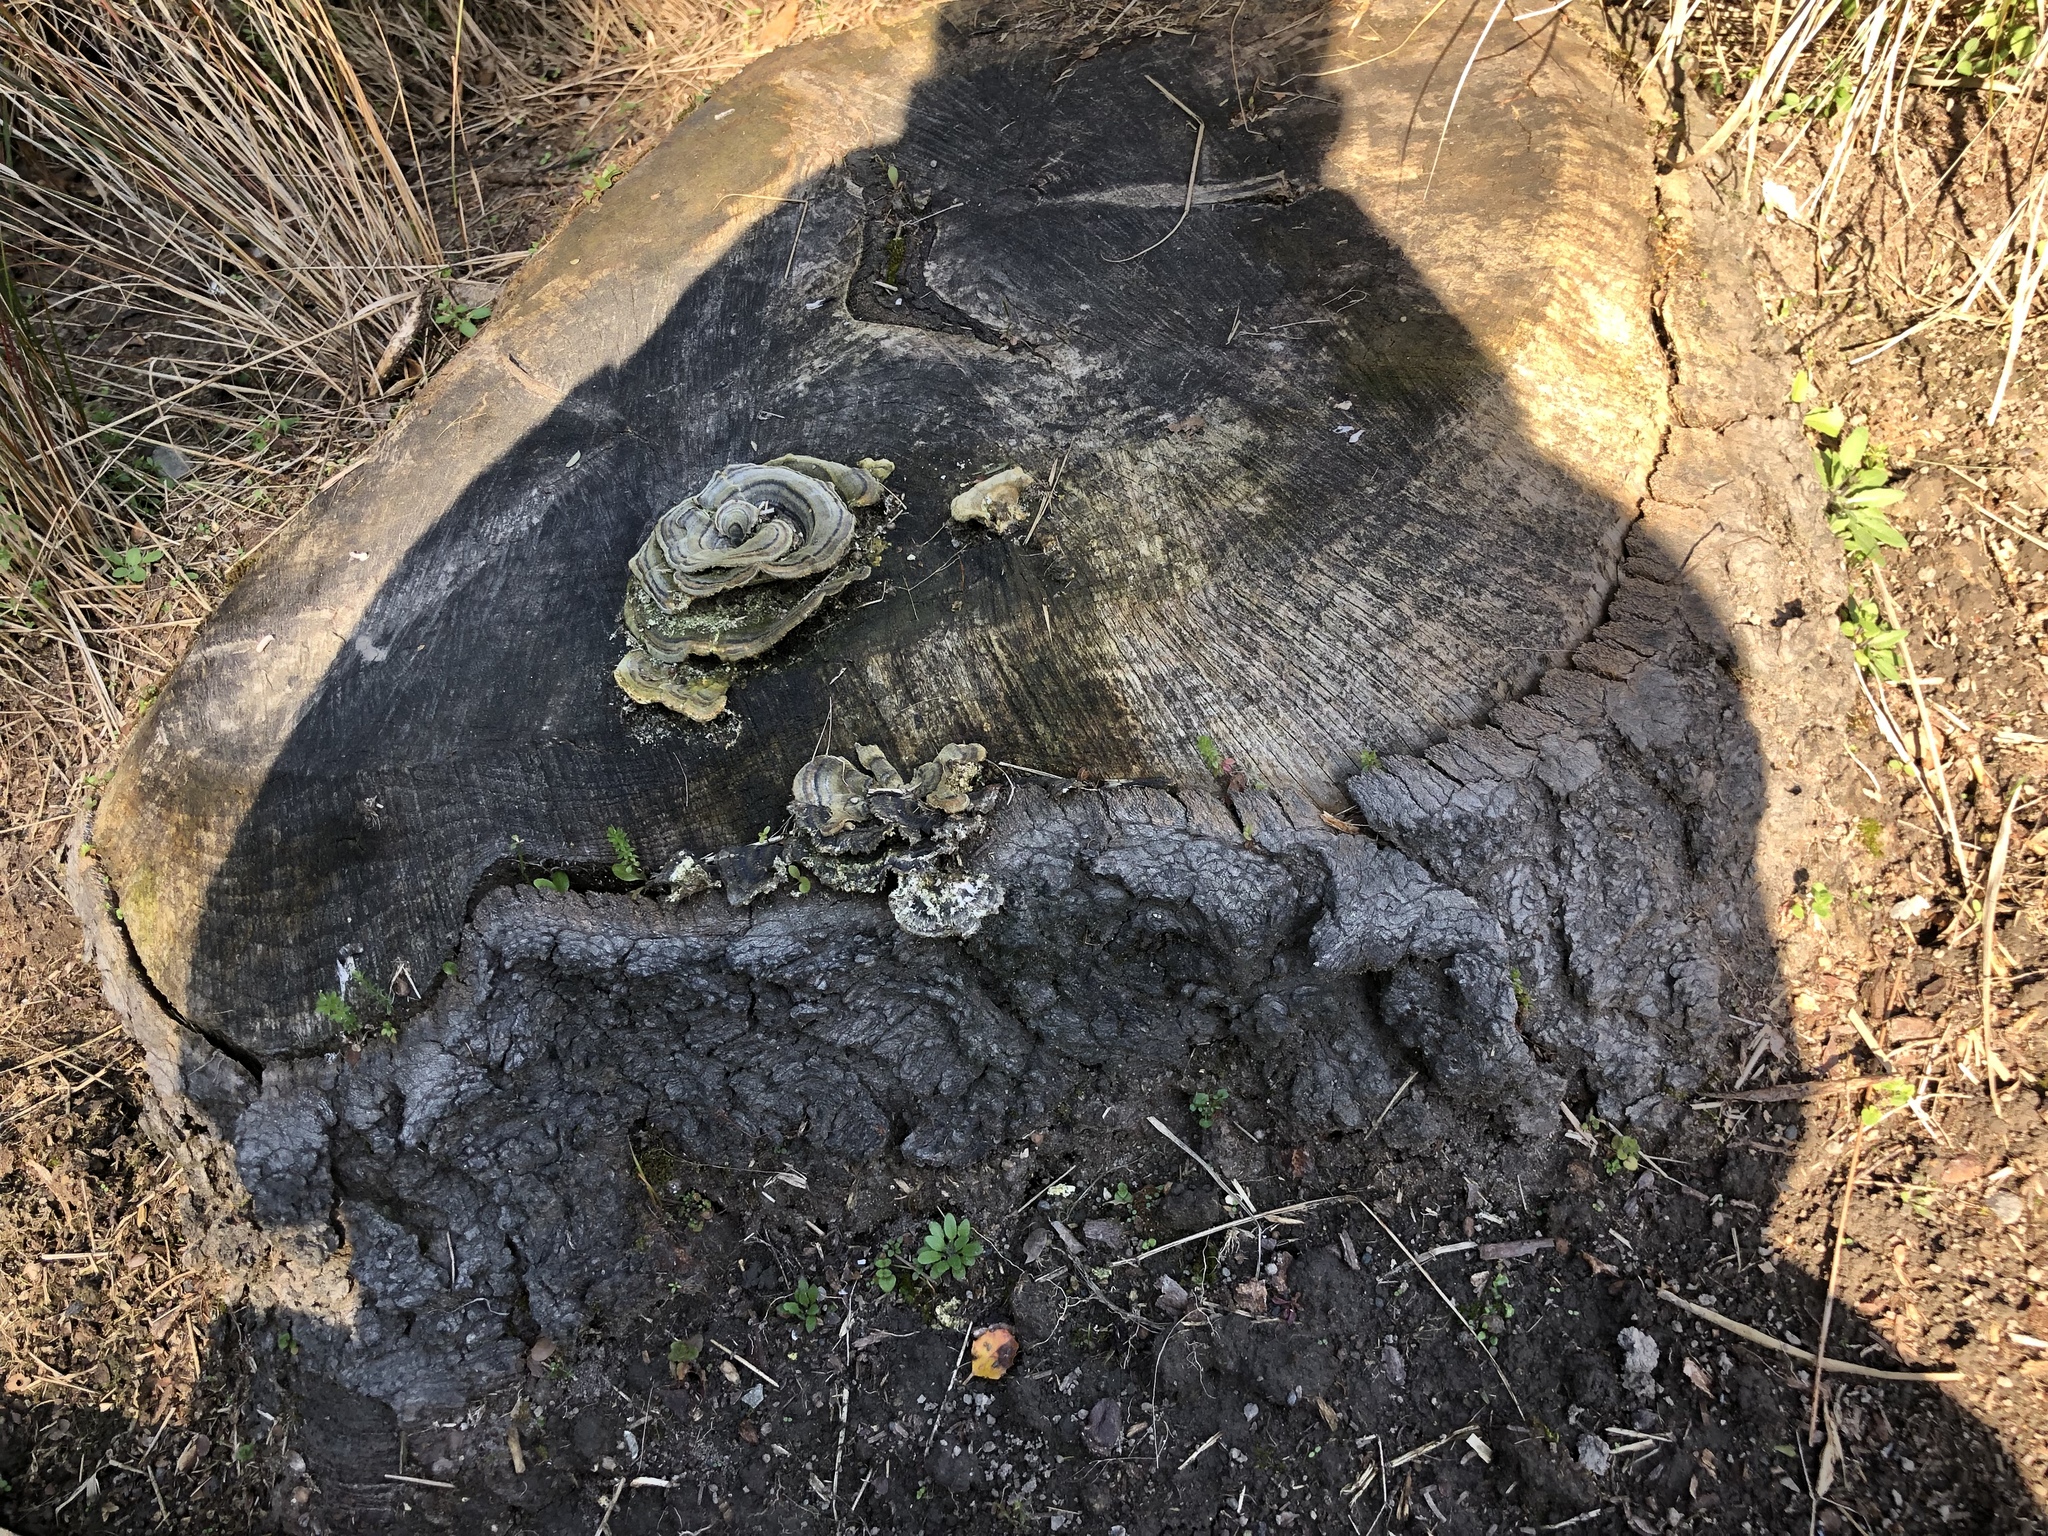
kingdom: Plantae
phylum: Tracheophyta
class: Magnoliopsida
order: Gentianales
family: Rubiaceae
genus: Sherardia
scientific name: Sherardia arvensis
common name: Field madder
